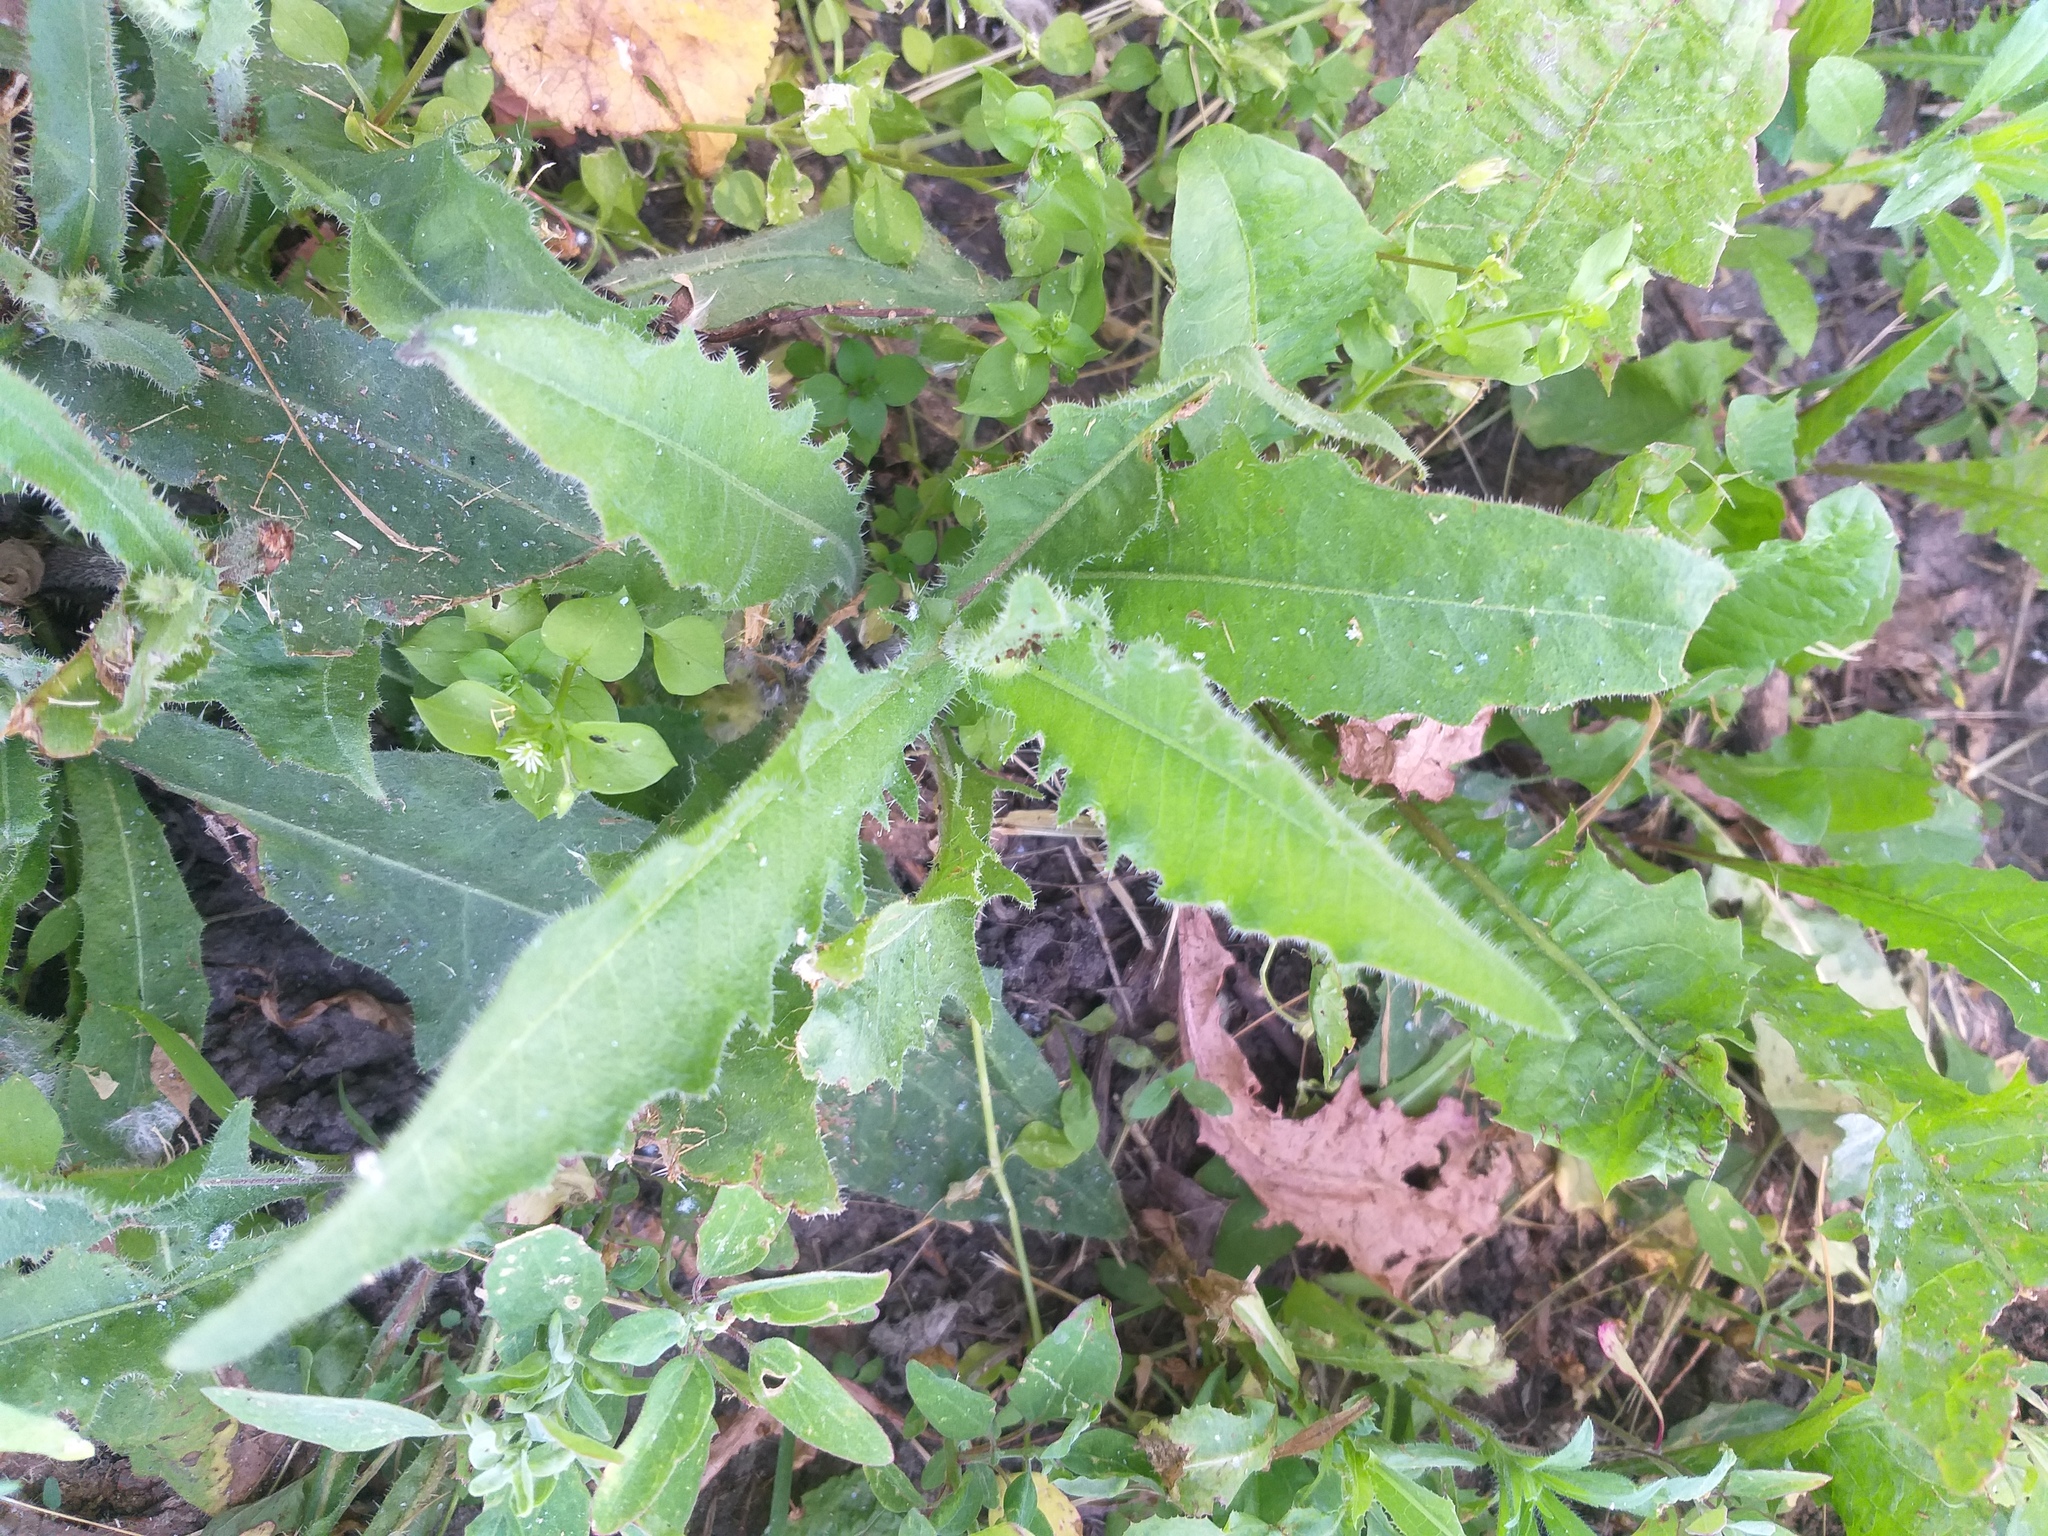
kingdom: Plantae
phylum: Tracheophyta
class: Magnoliopsida
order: Asterales
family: Asteraceae
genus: Picris
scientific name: Picris hieracioides
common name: Hawkweed oxtongue
